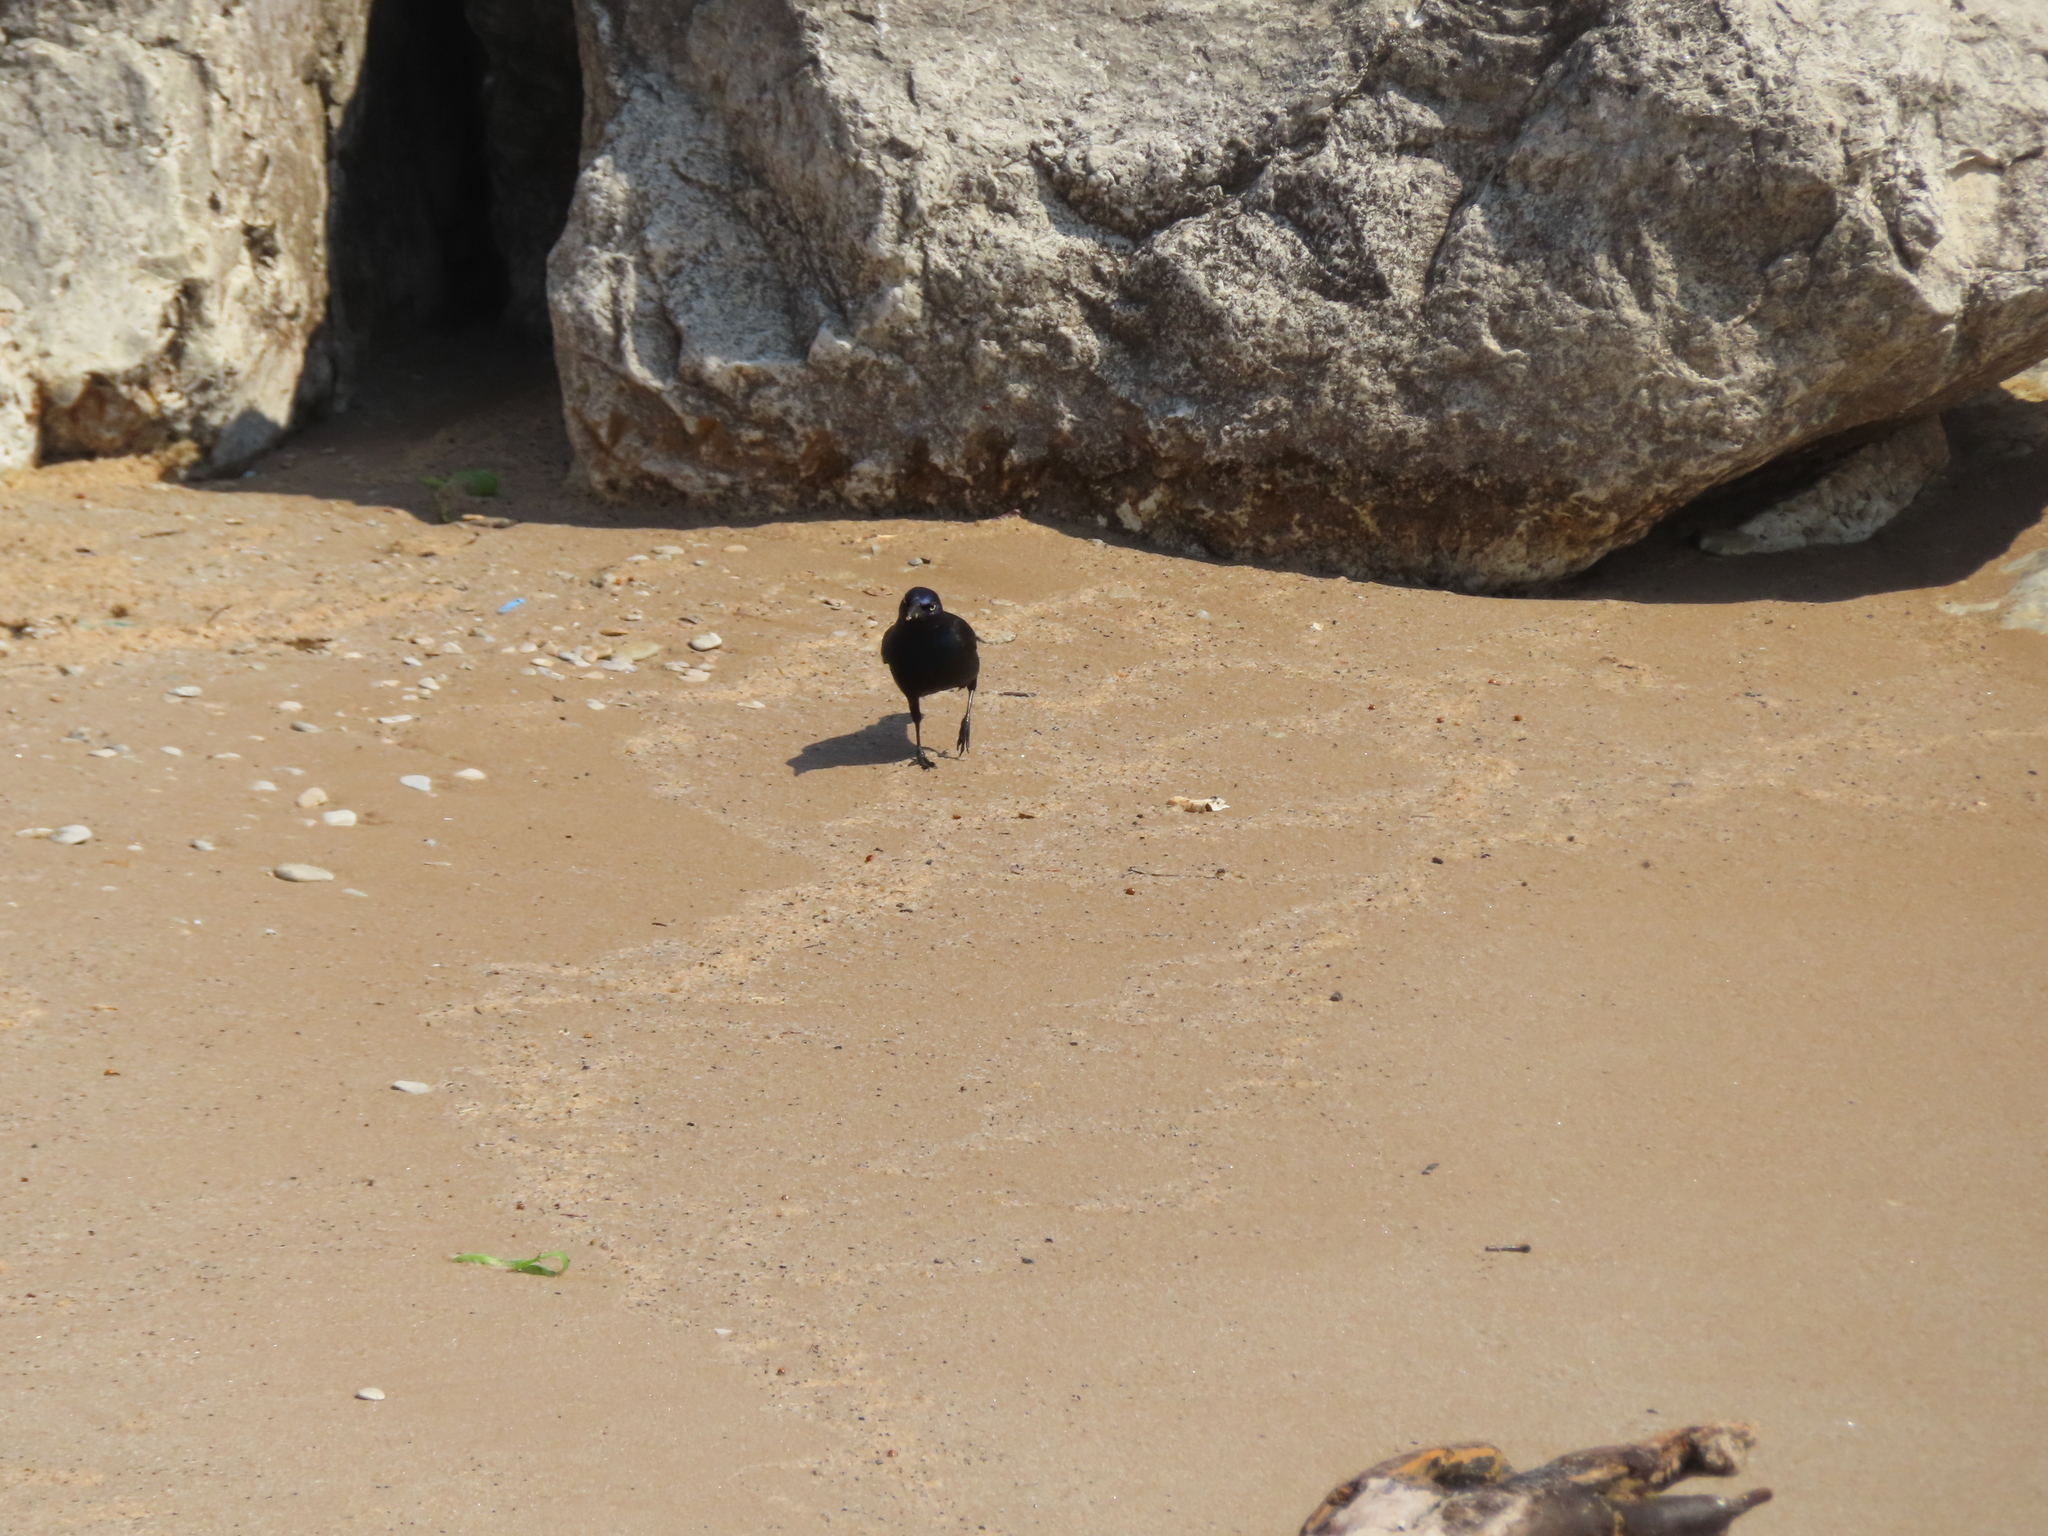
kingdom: Animalia
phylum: Chordata
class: Aves
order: Passeriformes
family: Icteridae
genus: Quiscalus
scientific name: Quiscalus quiscula
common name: Common grackle
